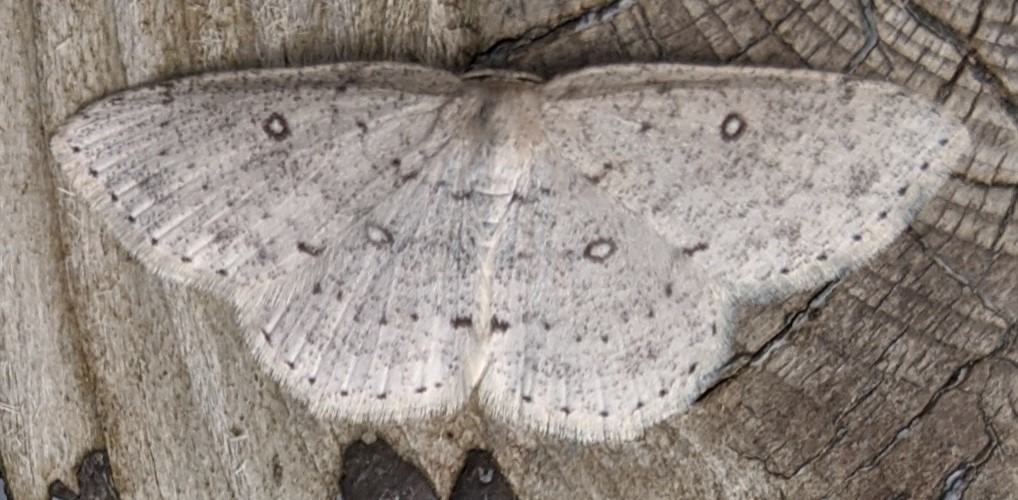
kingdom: Animalia
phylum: Arthropoda
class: Insecta
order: Lepidoptera
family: Geometridae
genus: Cyclophora
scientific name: Cyclophora pendulinaria
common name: Sweet fern geometer
